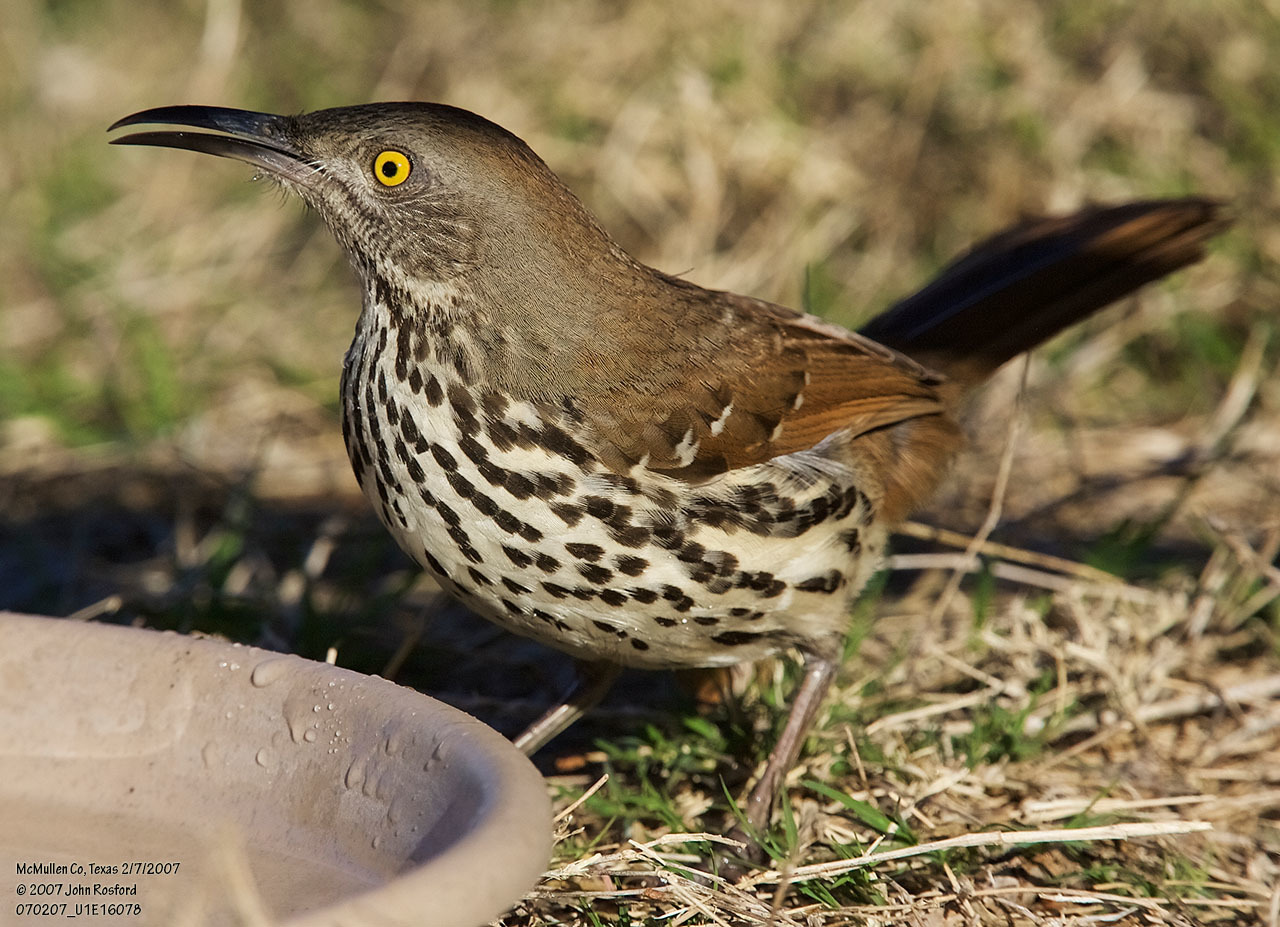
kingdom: Animalia
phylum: Chordata
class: Aves
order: Passeriformes
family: Mimidae
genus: Toxostoma
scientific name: Toxostoma longirostre
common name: Long-billed thrasher
